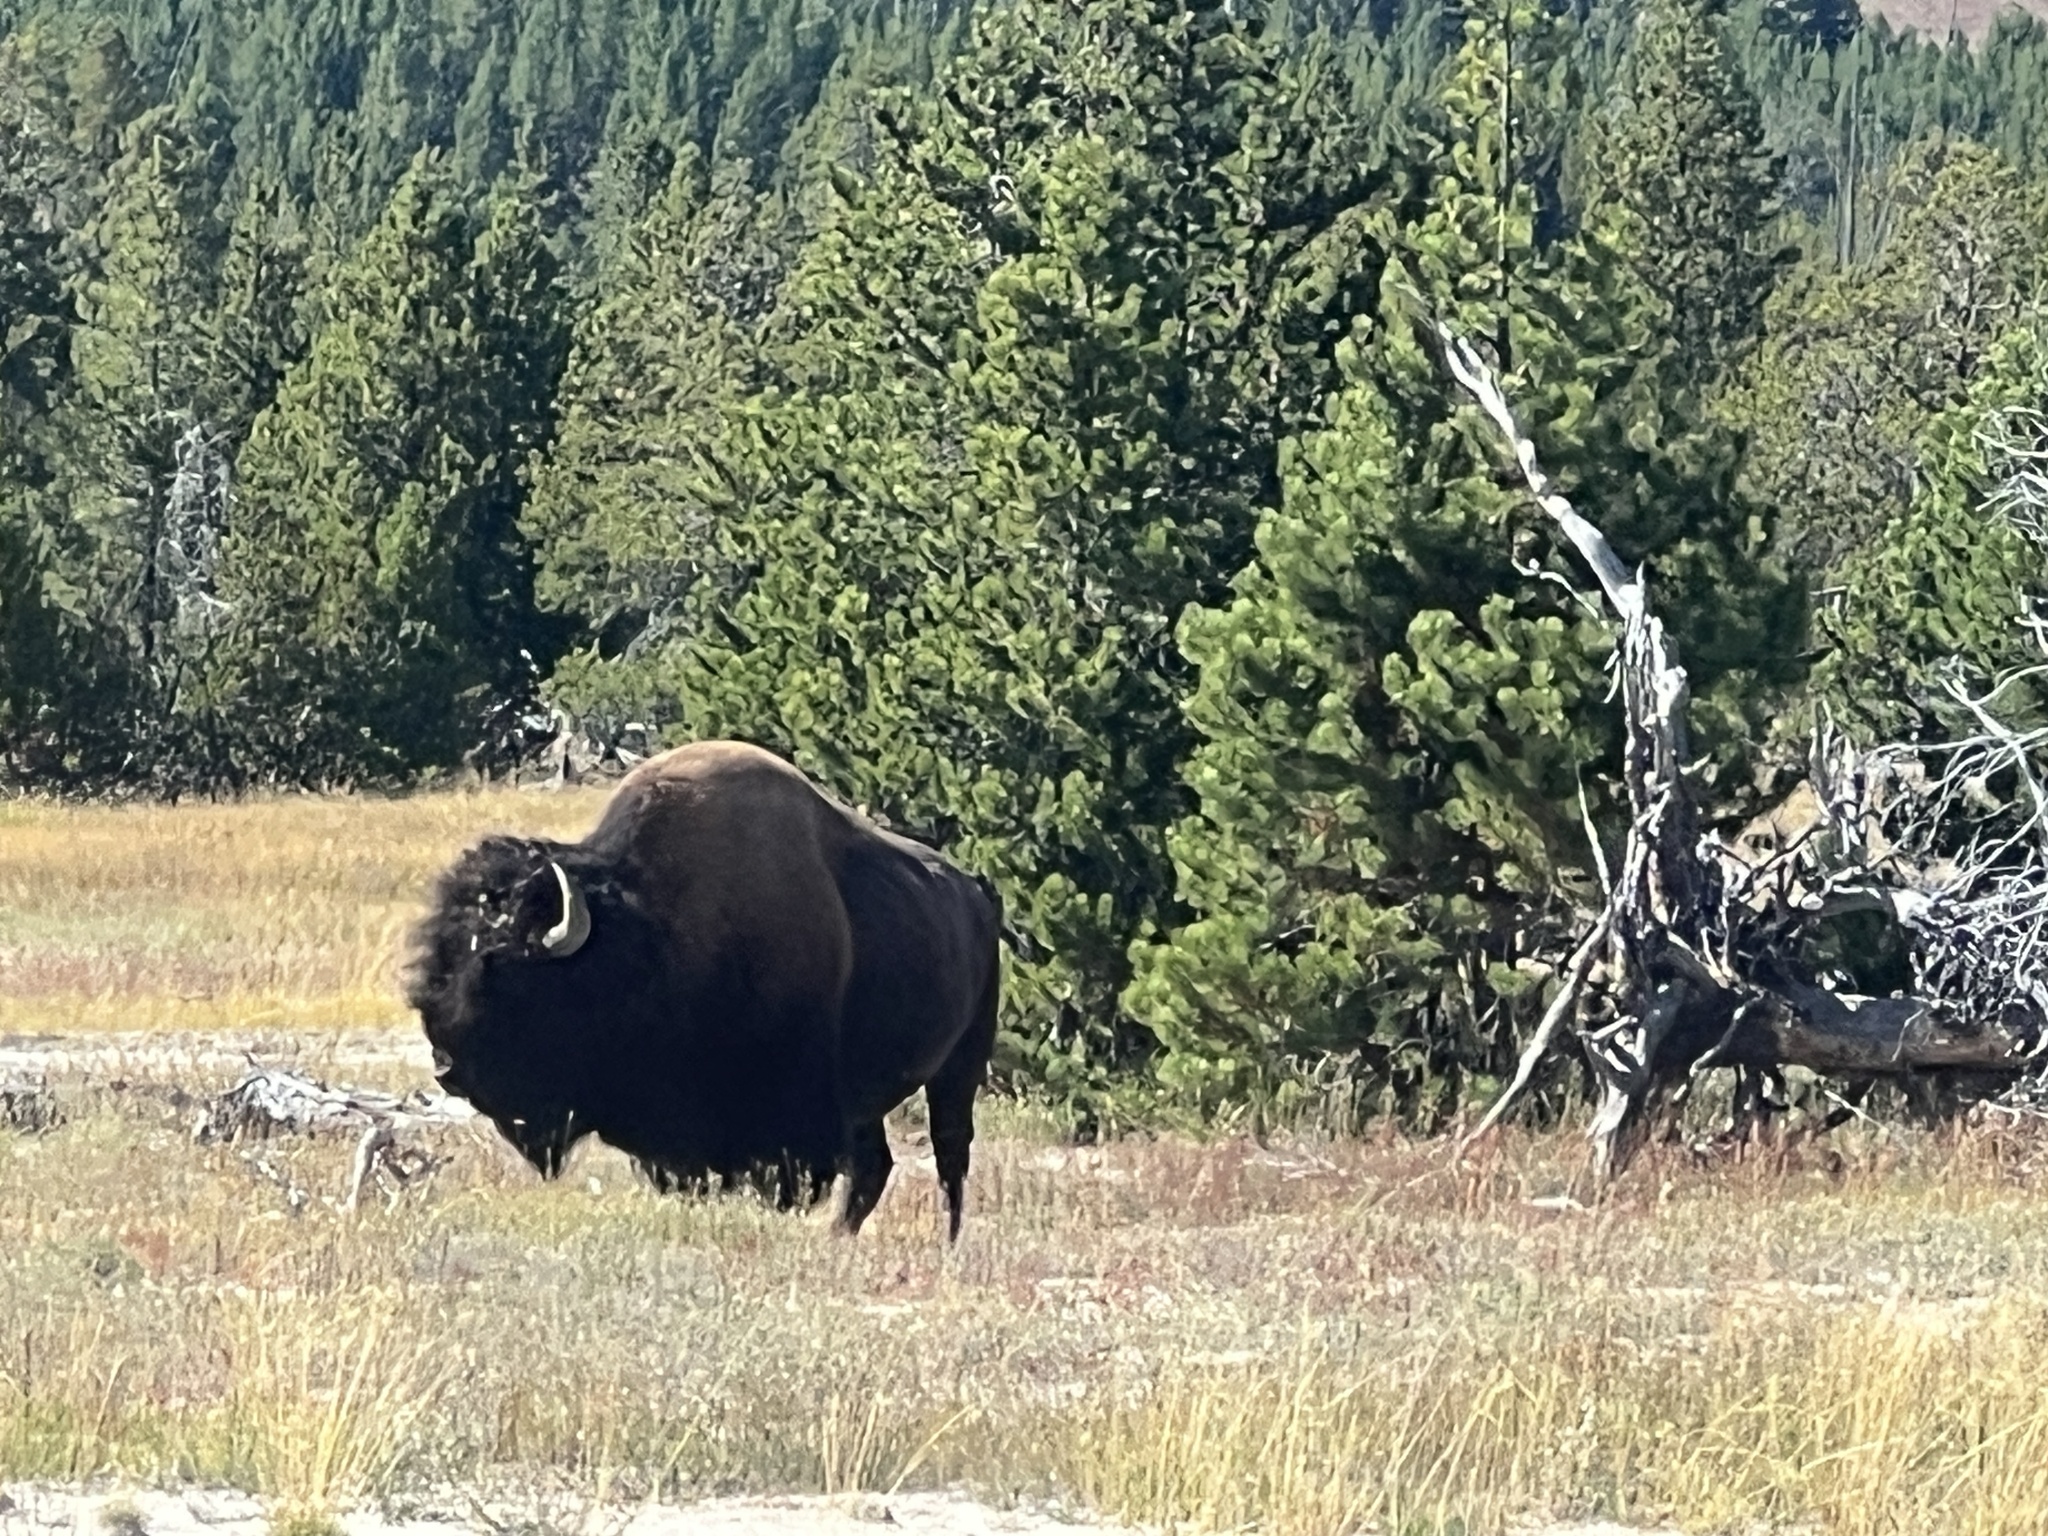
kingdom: Animalia
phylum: Chordata
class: Mammalia
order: Artiodactyla
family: Bovidae
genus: Bison
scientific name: Bison bison
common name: American bison
